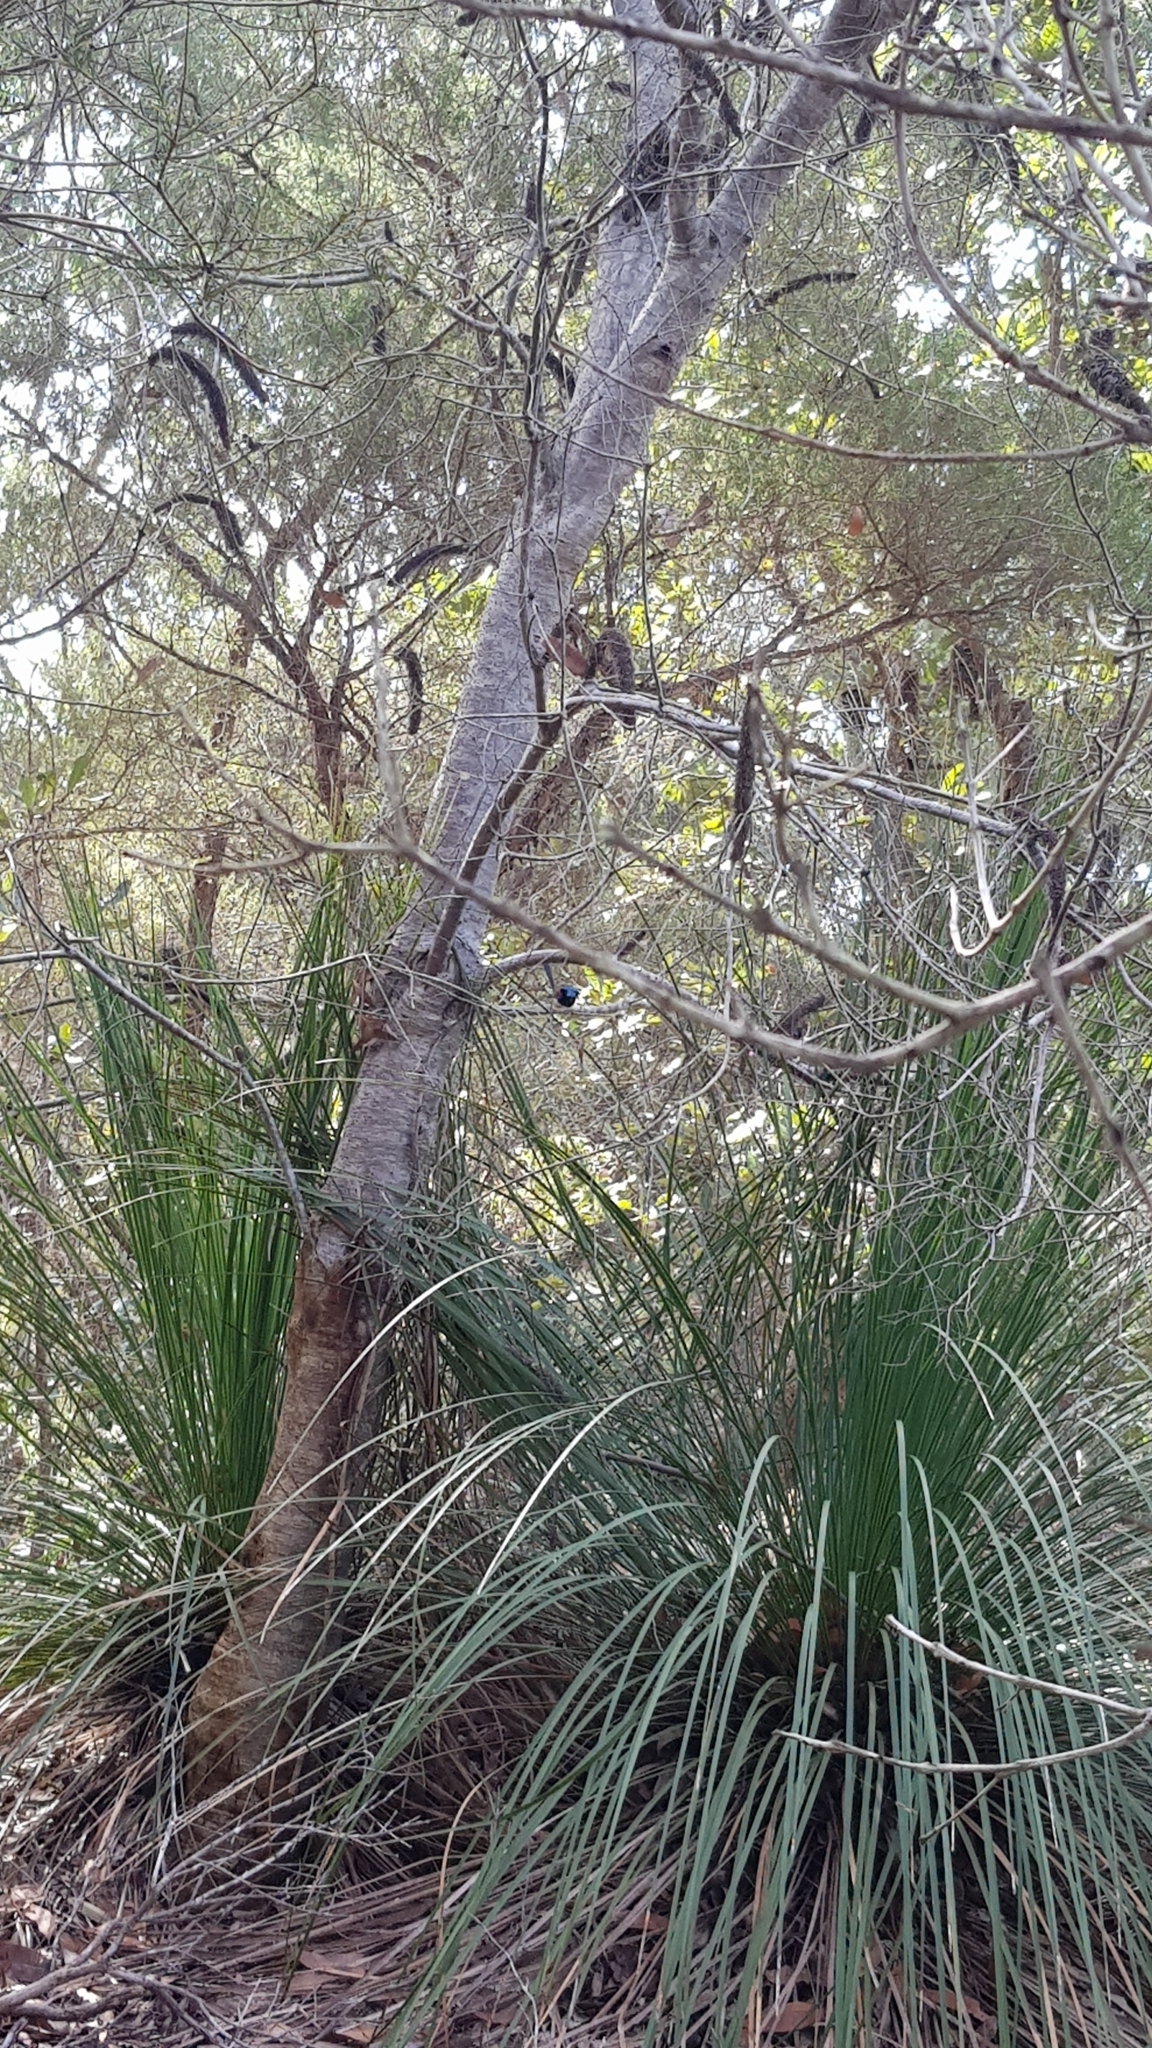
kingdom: Animalia
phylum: Chordata
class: Aves
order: Passeriformes
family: Maluridae
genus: Malurus
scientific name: Malurus lamberti
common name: Variegated fairywren
